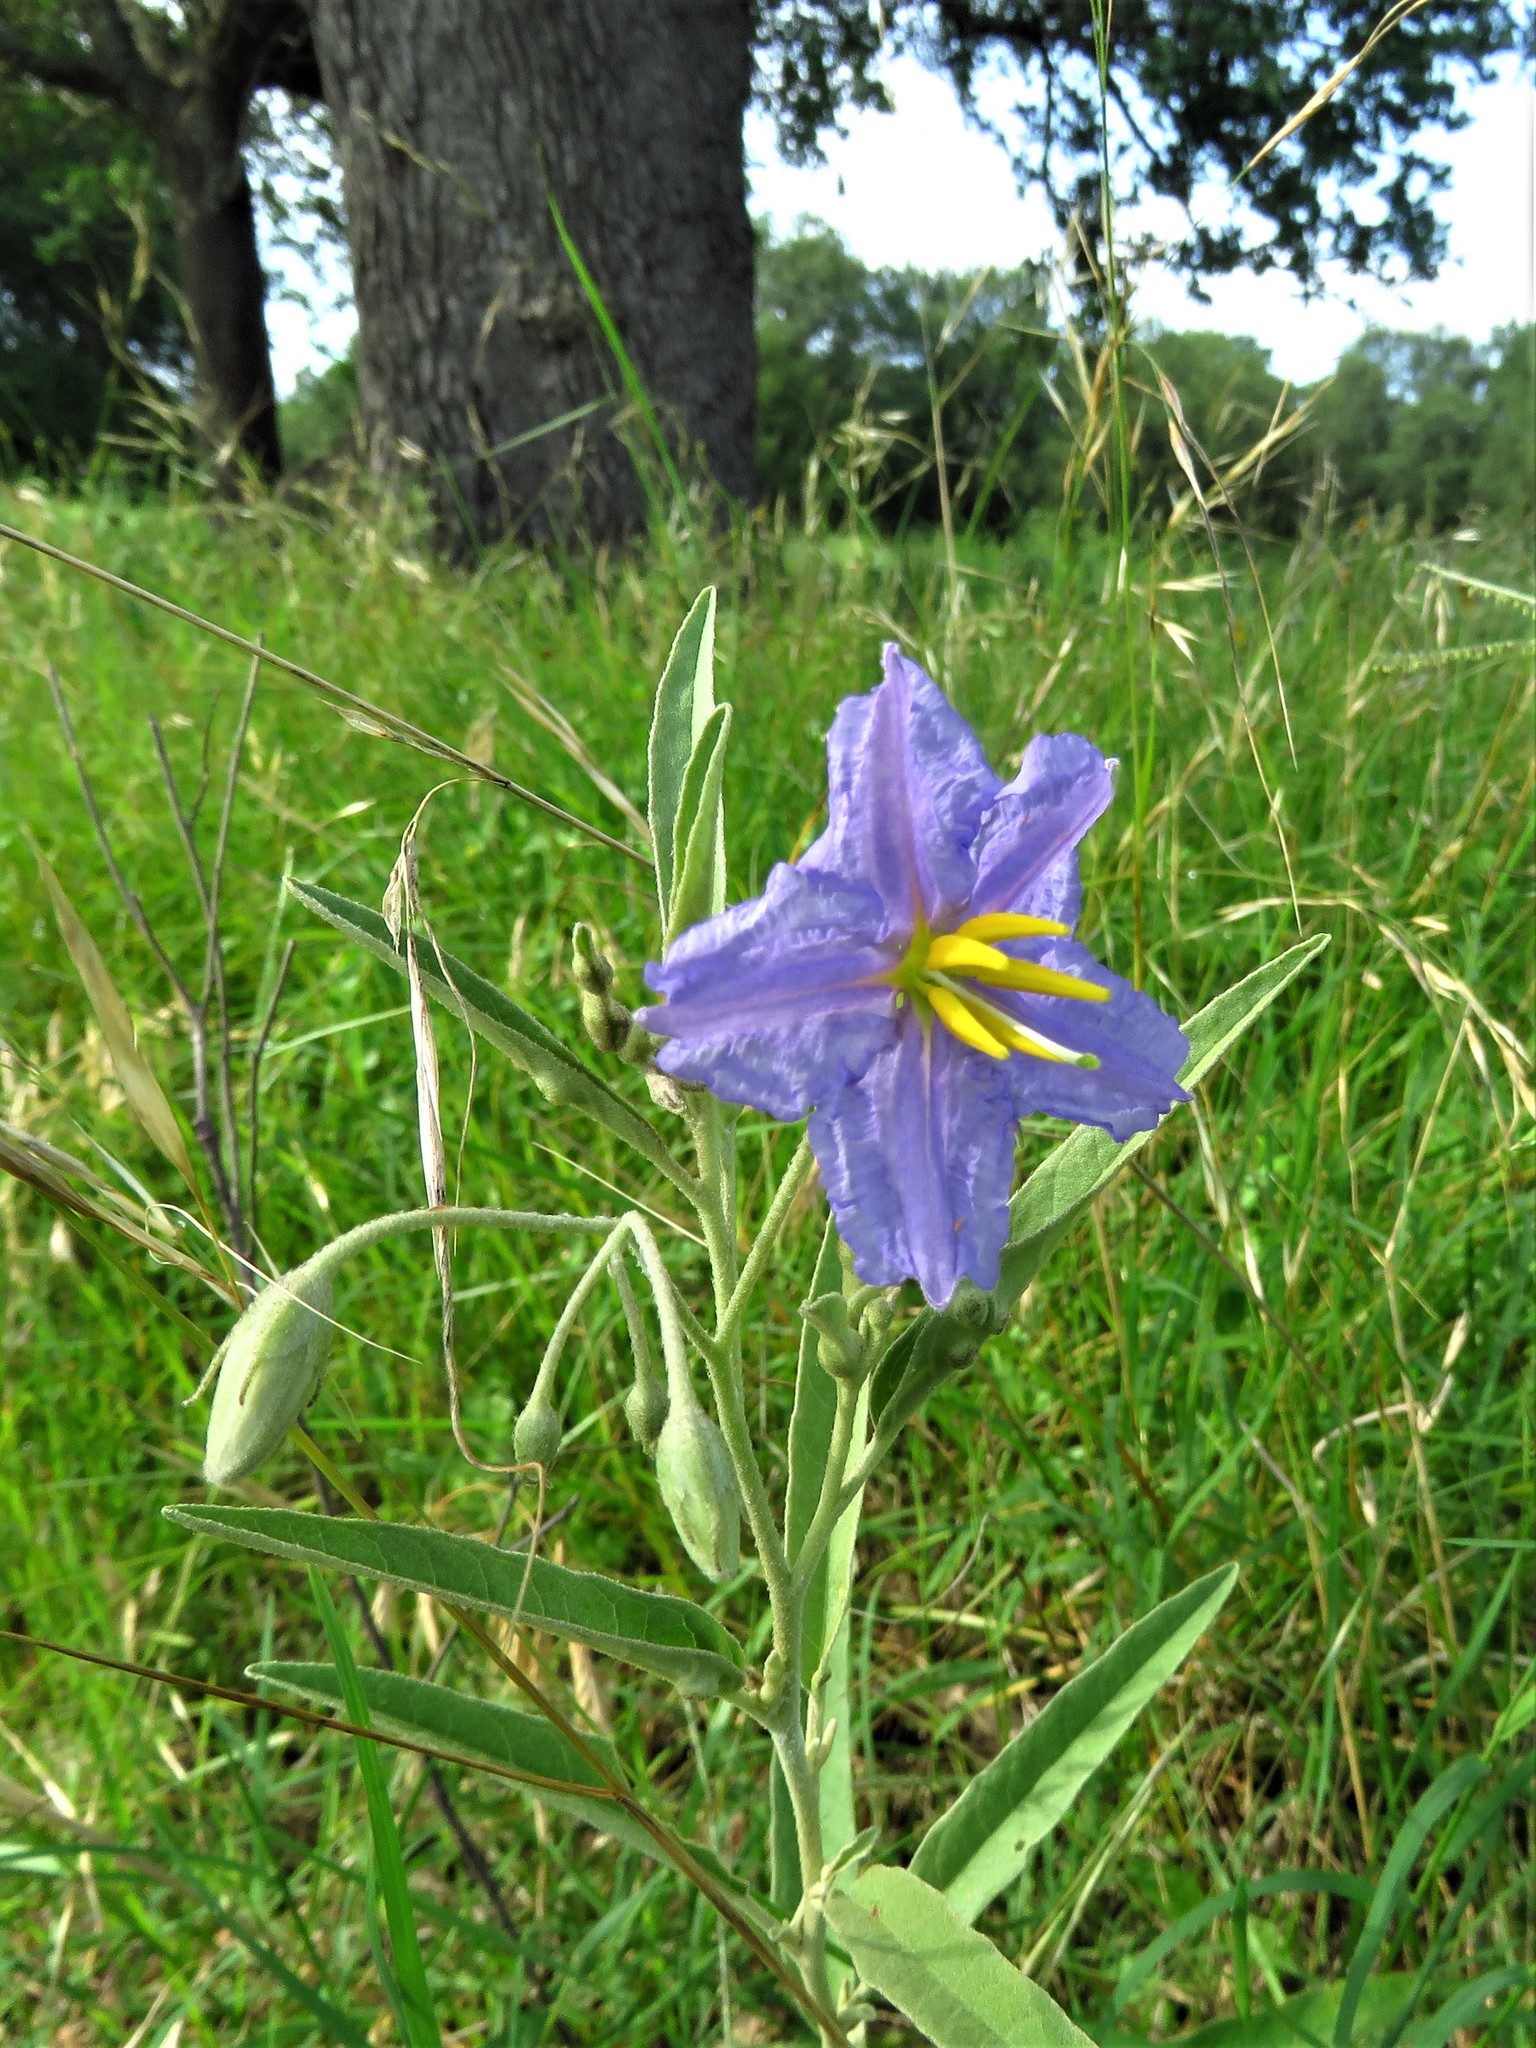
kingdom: Plantae
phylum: Tracheophyta
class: Magnoliopsida
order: Solanales
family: Solanaceae
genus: Solanum
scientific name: Solanum elaeagnifolium
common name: Silverleaf nightshade
